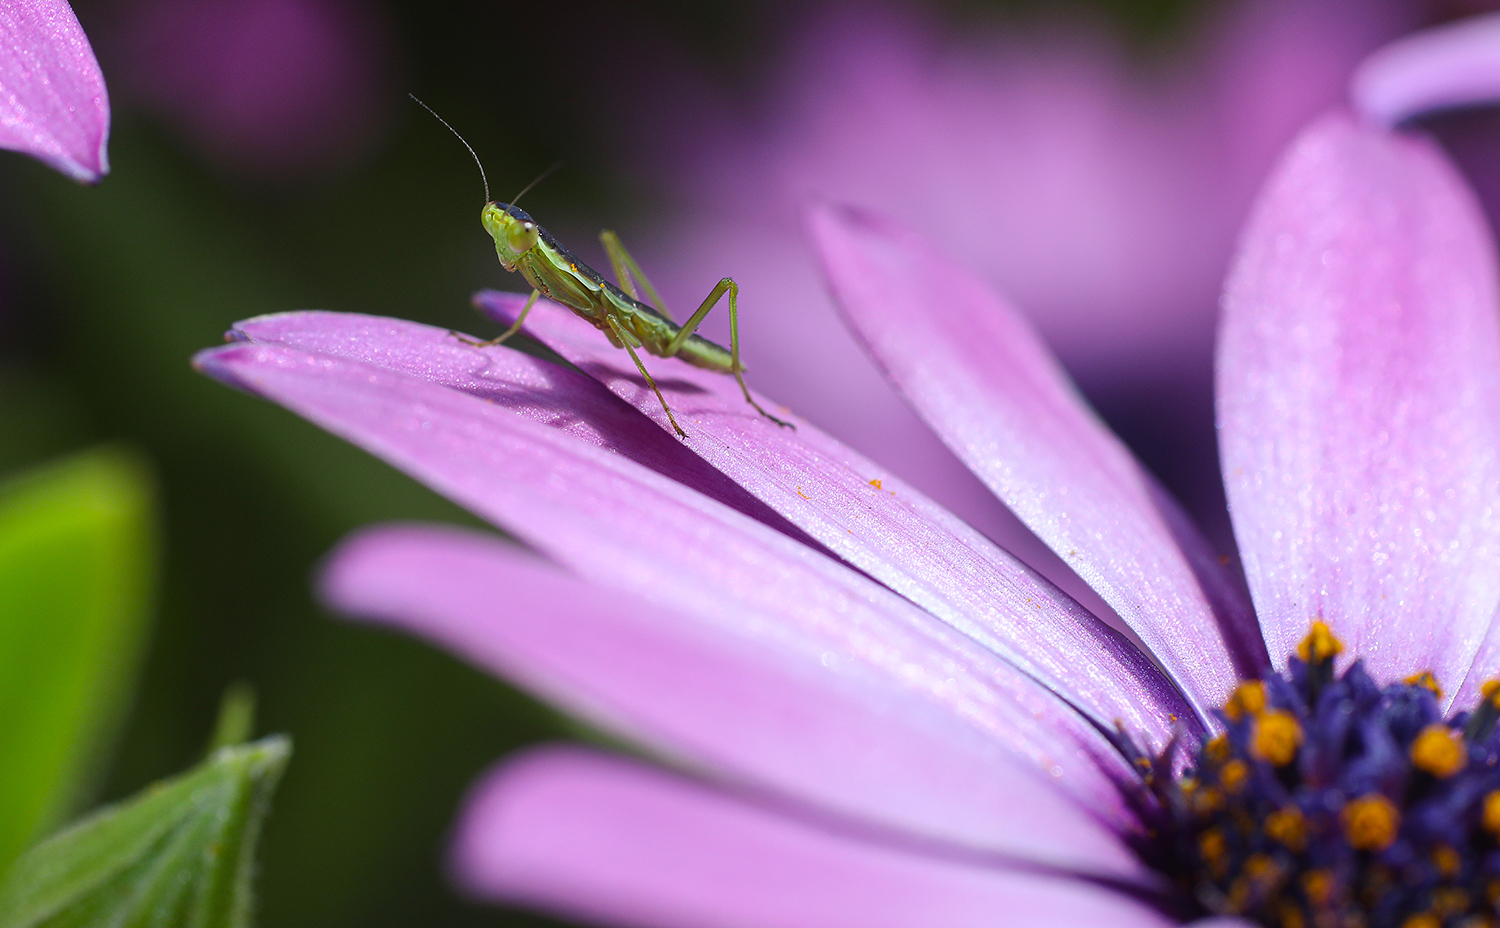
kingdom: Animalia
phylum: Arthropoda
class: Insecta
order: Mantodea
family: Mantidae
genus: Orthodera
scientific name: Orthodera ministralis
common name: Mantis
